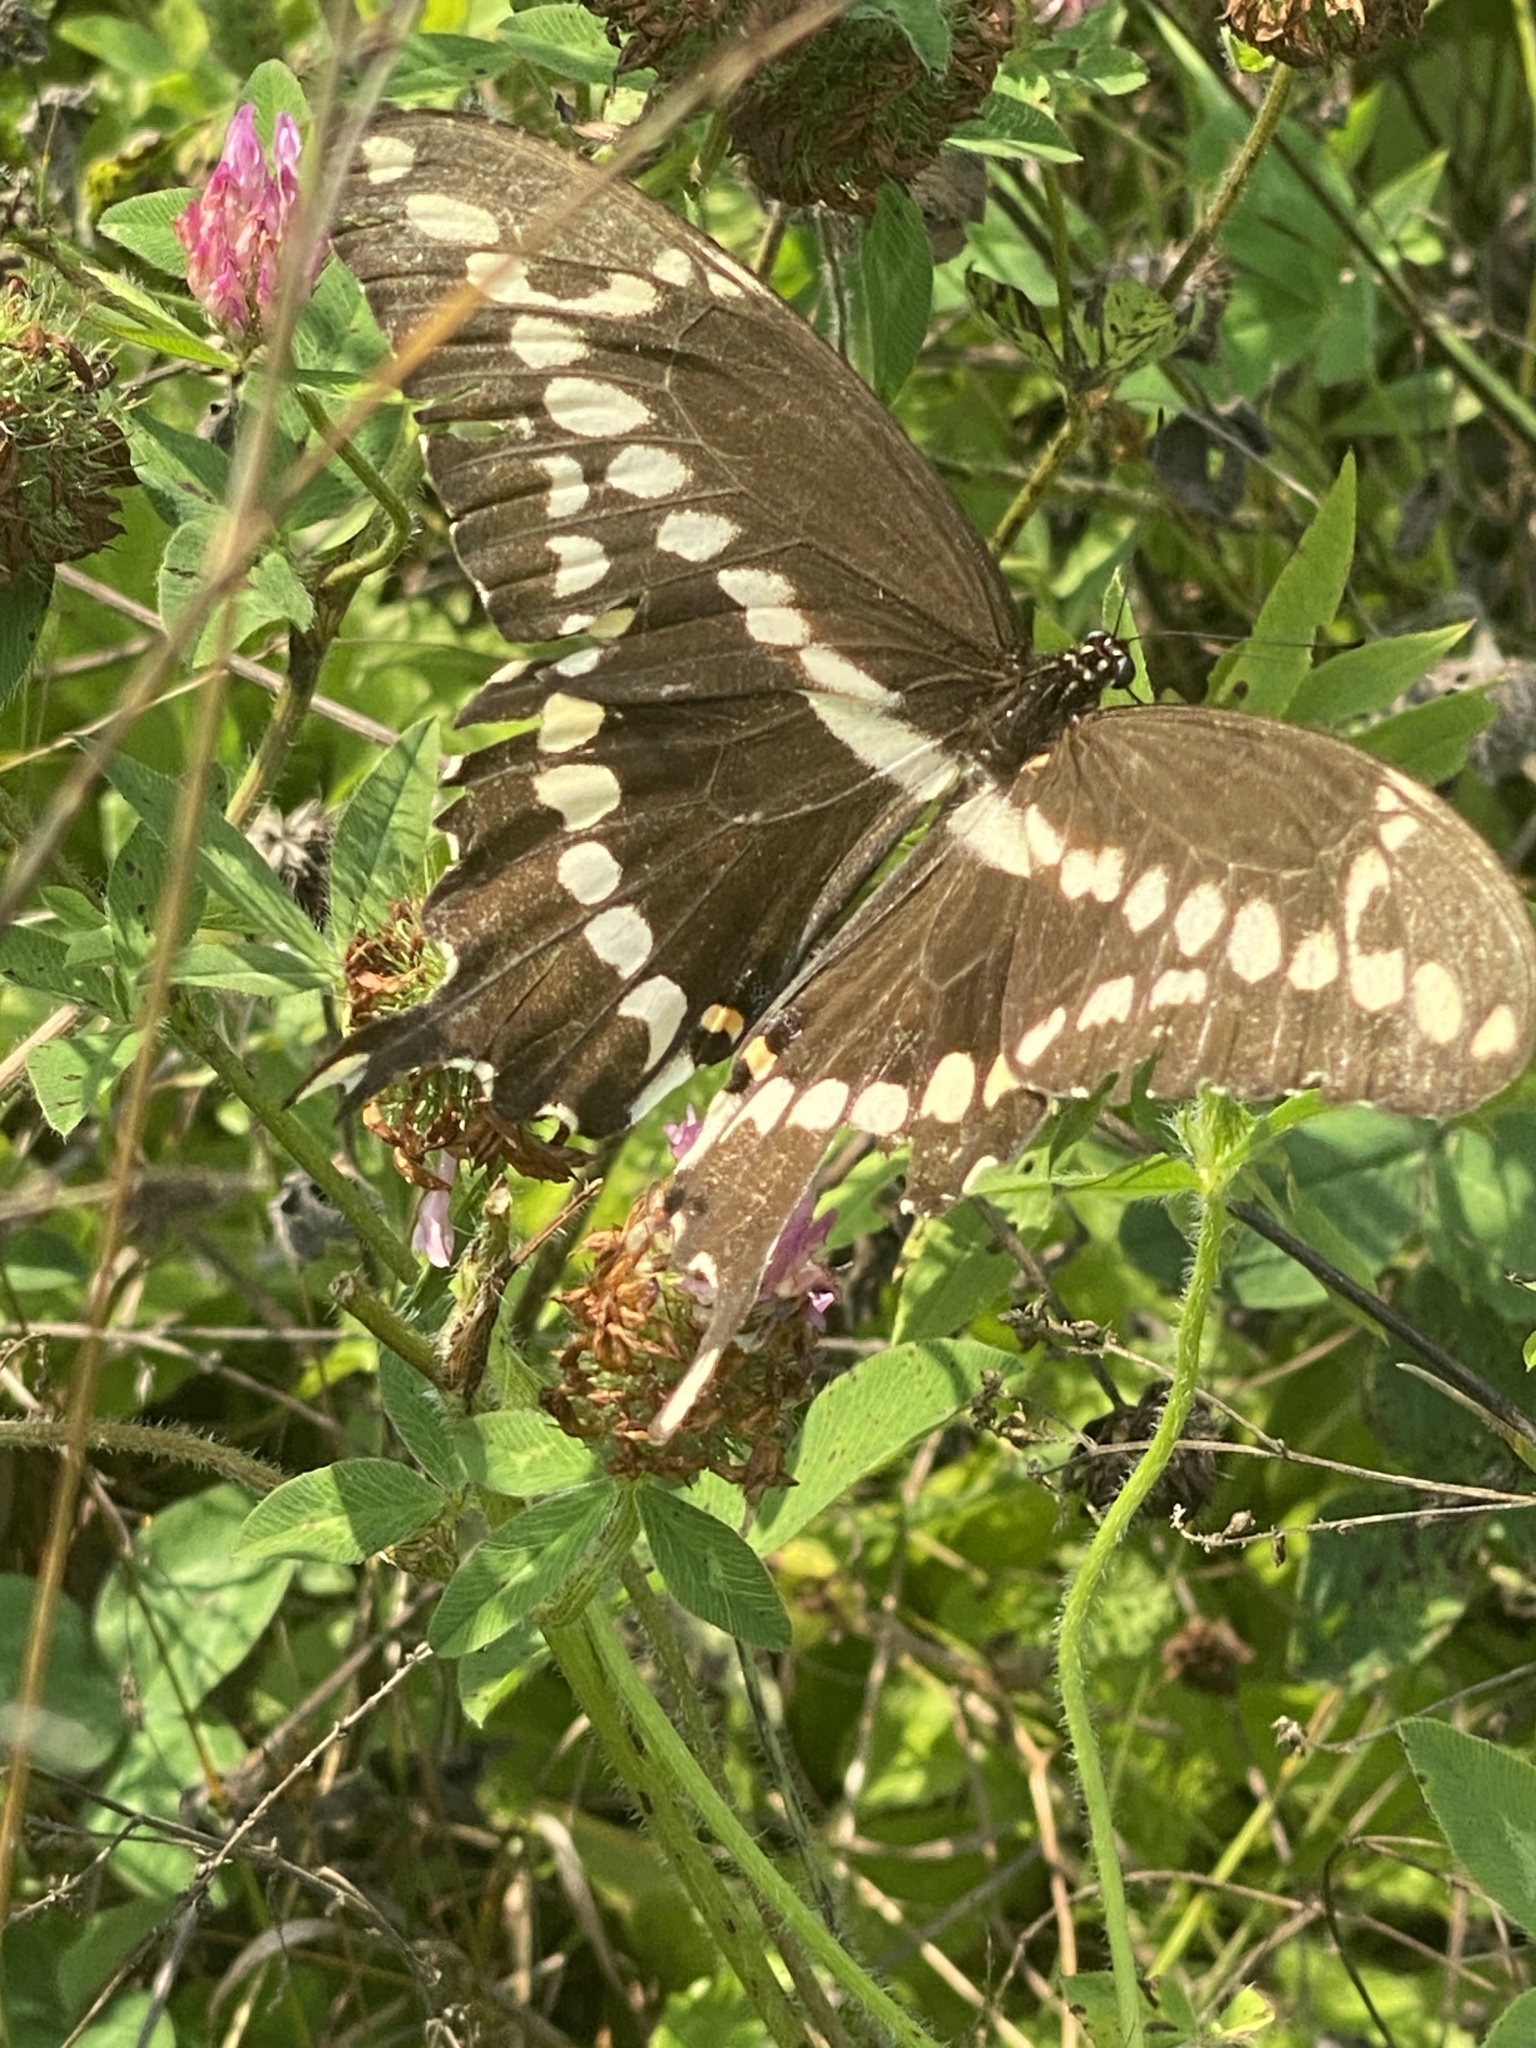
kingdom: Animalia
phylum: Arthropoda
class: Insecta
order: Lepidoptera
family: Papilionidae
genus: Papilio
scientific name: Papilio cresphontes
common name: Giant swallowtail
